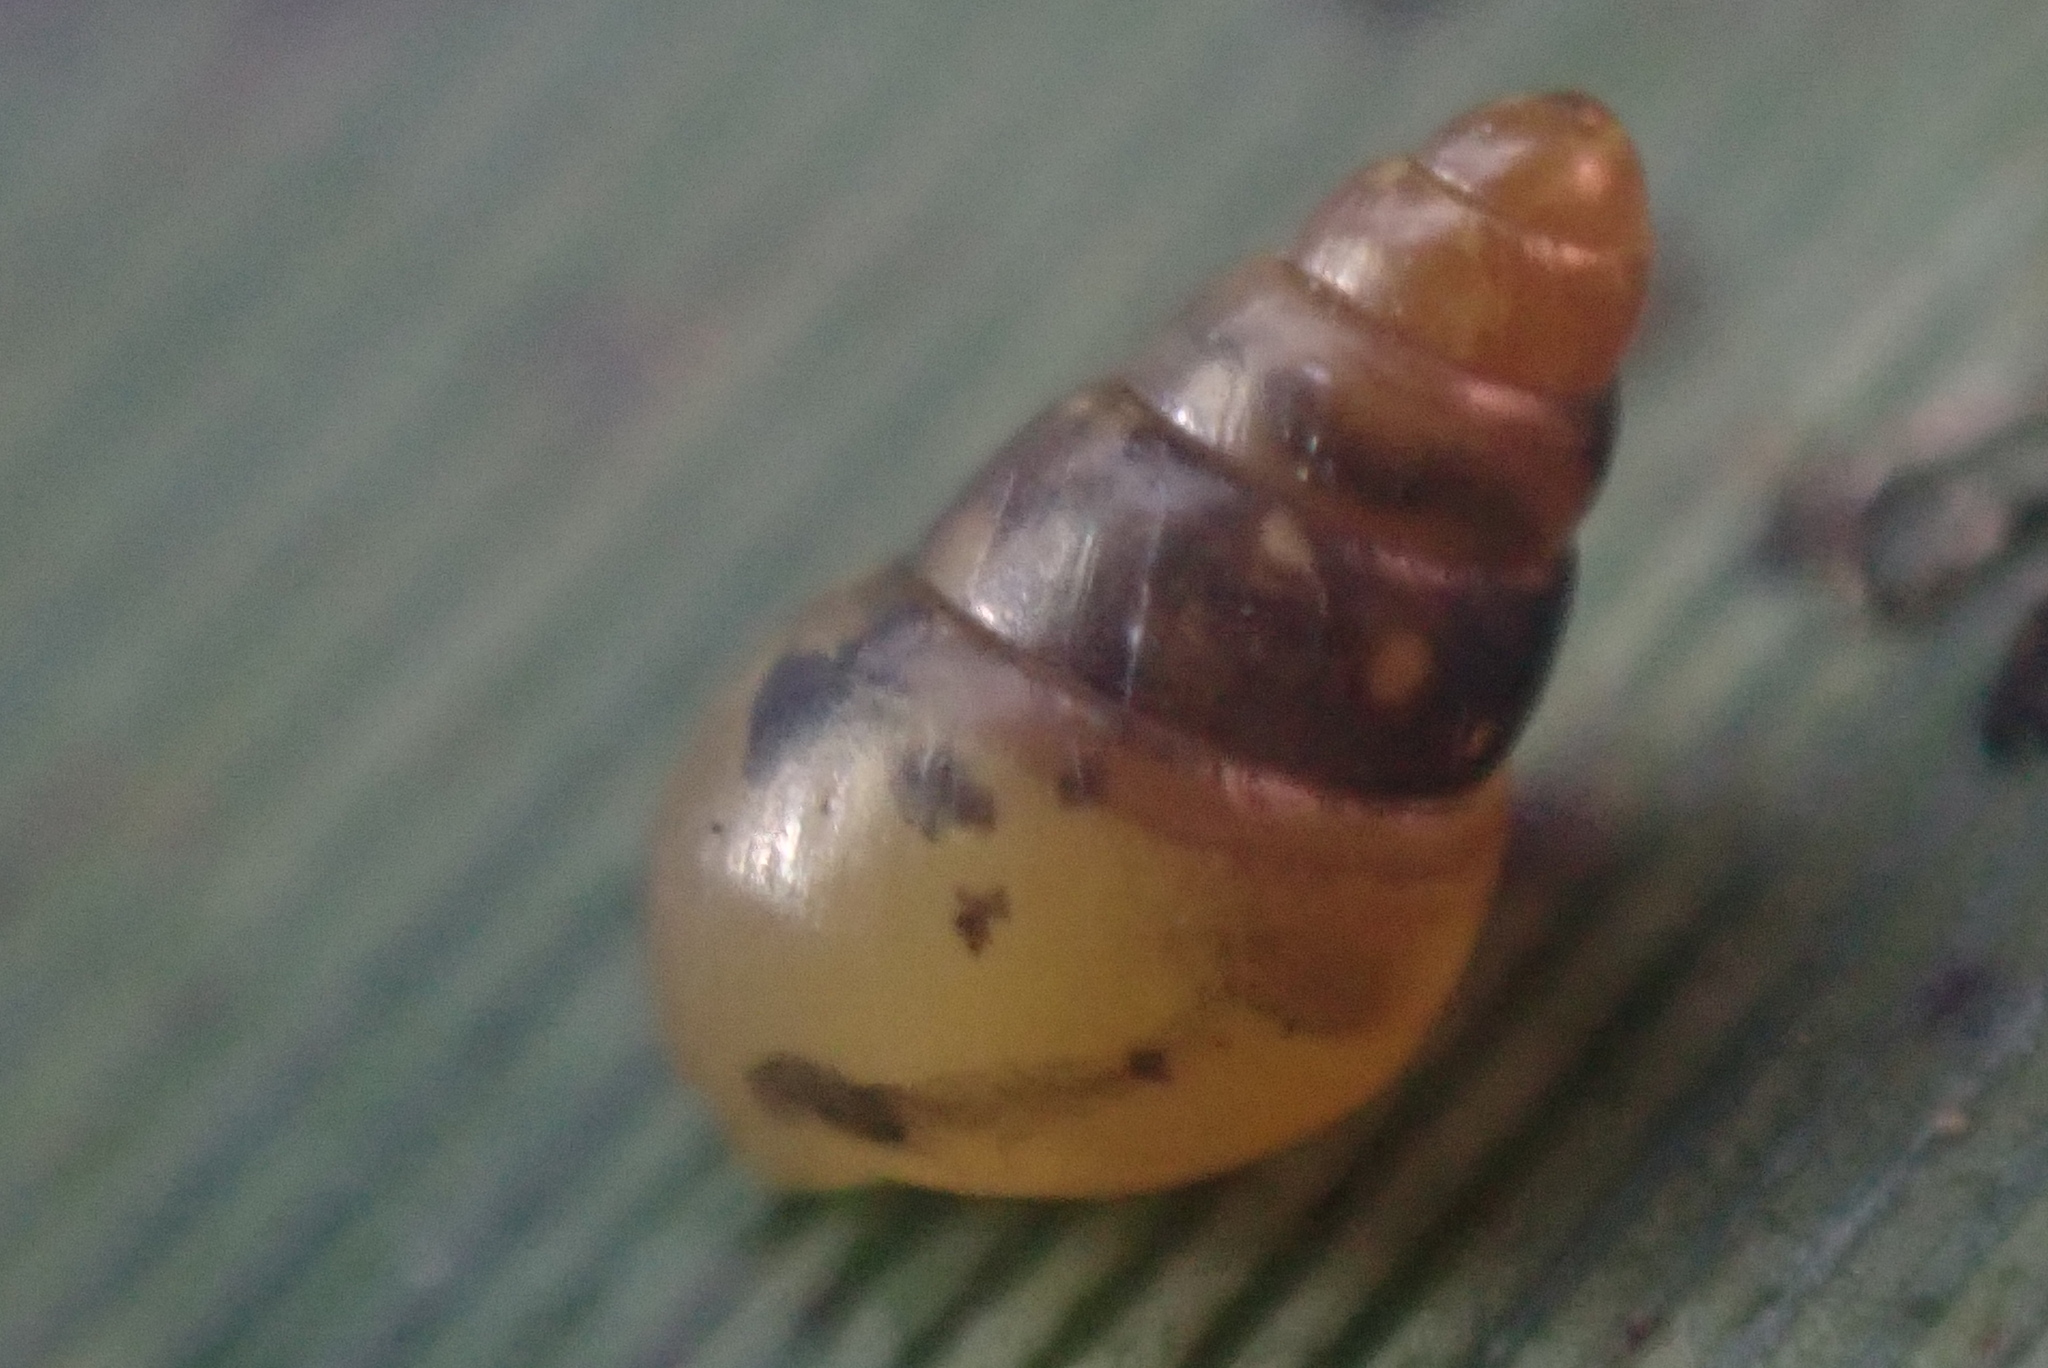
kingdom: Animalia
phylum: Mollusca
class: Gastropoda
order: Stylommatophora
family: Achatinellidae
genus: Tornatellides
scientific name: Tornatellides subperforatus
